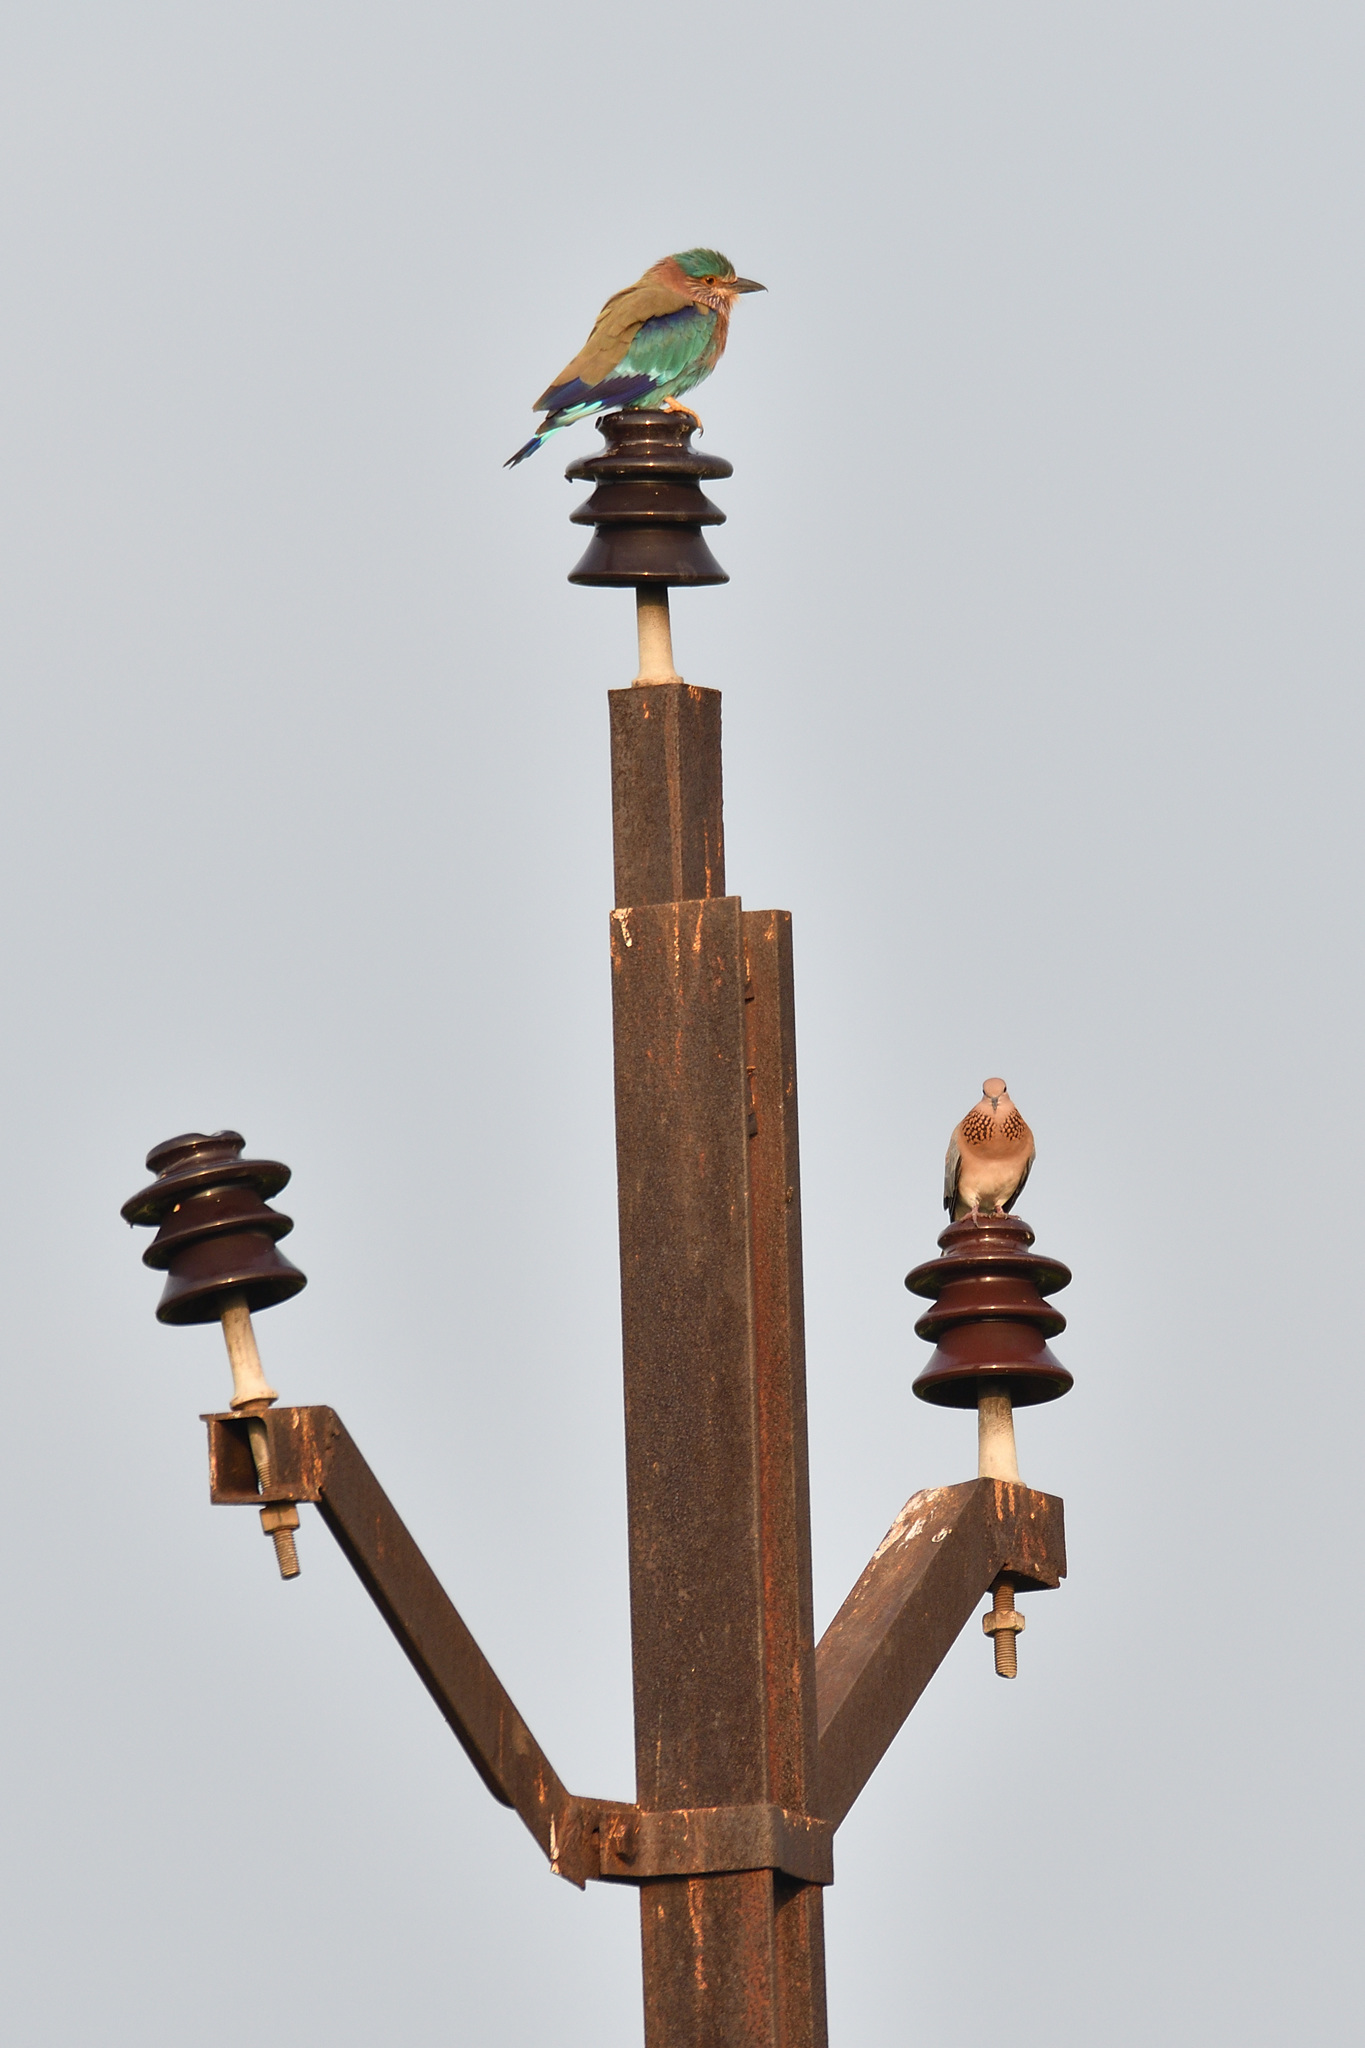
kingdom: Animalia
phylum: Chordata
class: Aves
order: Coraciiformes
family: Coraciidae
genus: Coracias
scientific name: Coracias benghalensis
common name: Indian roller
